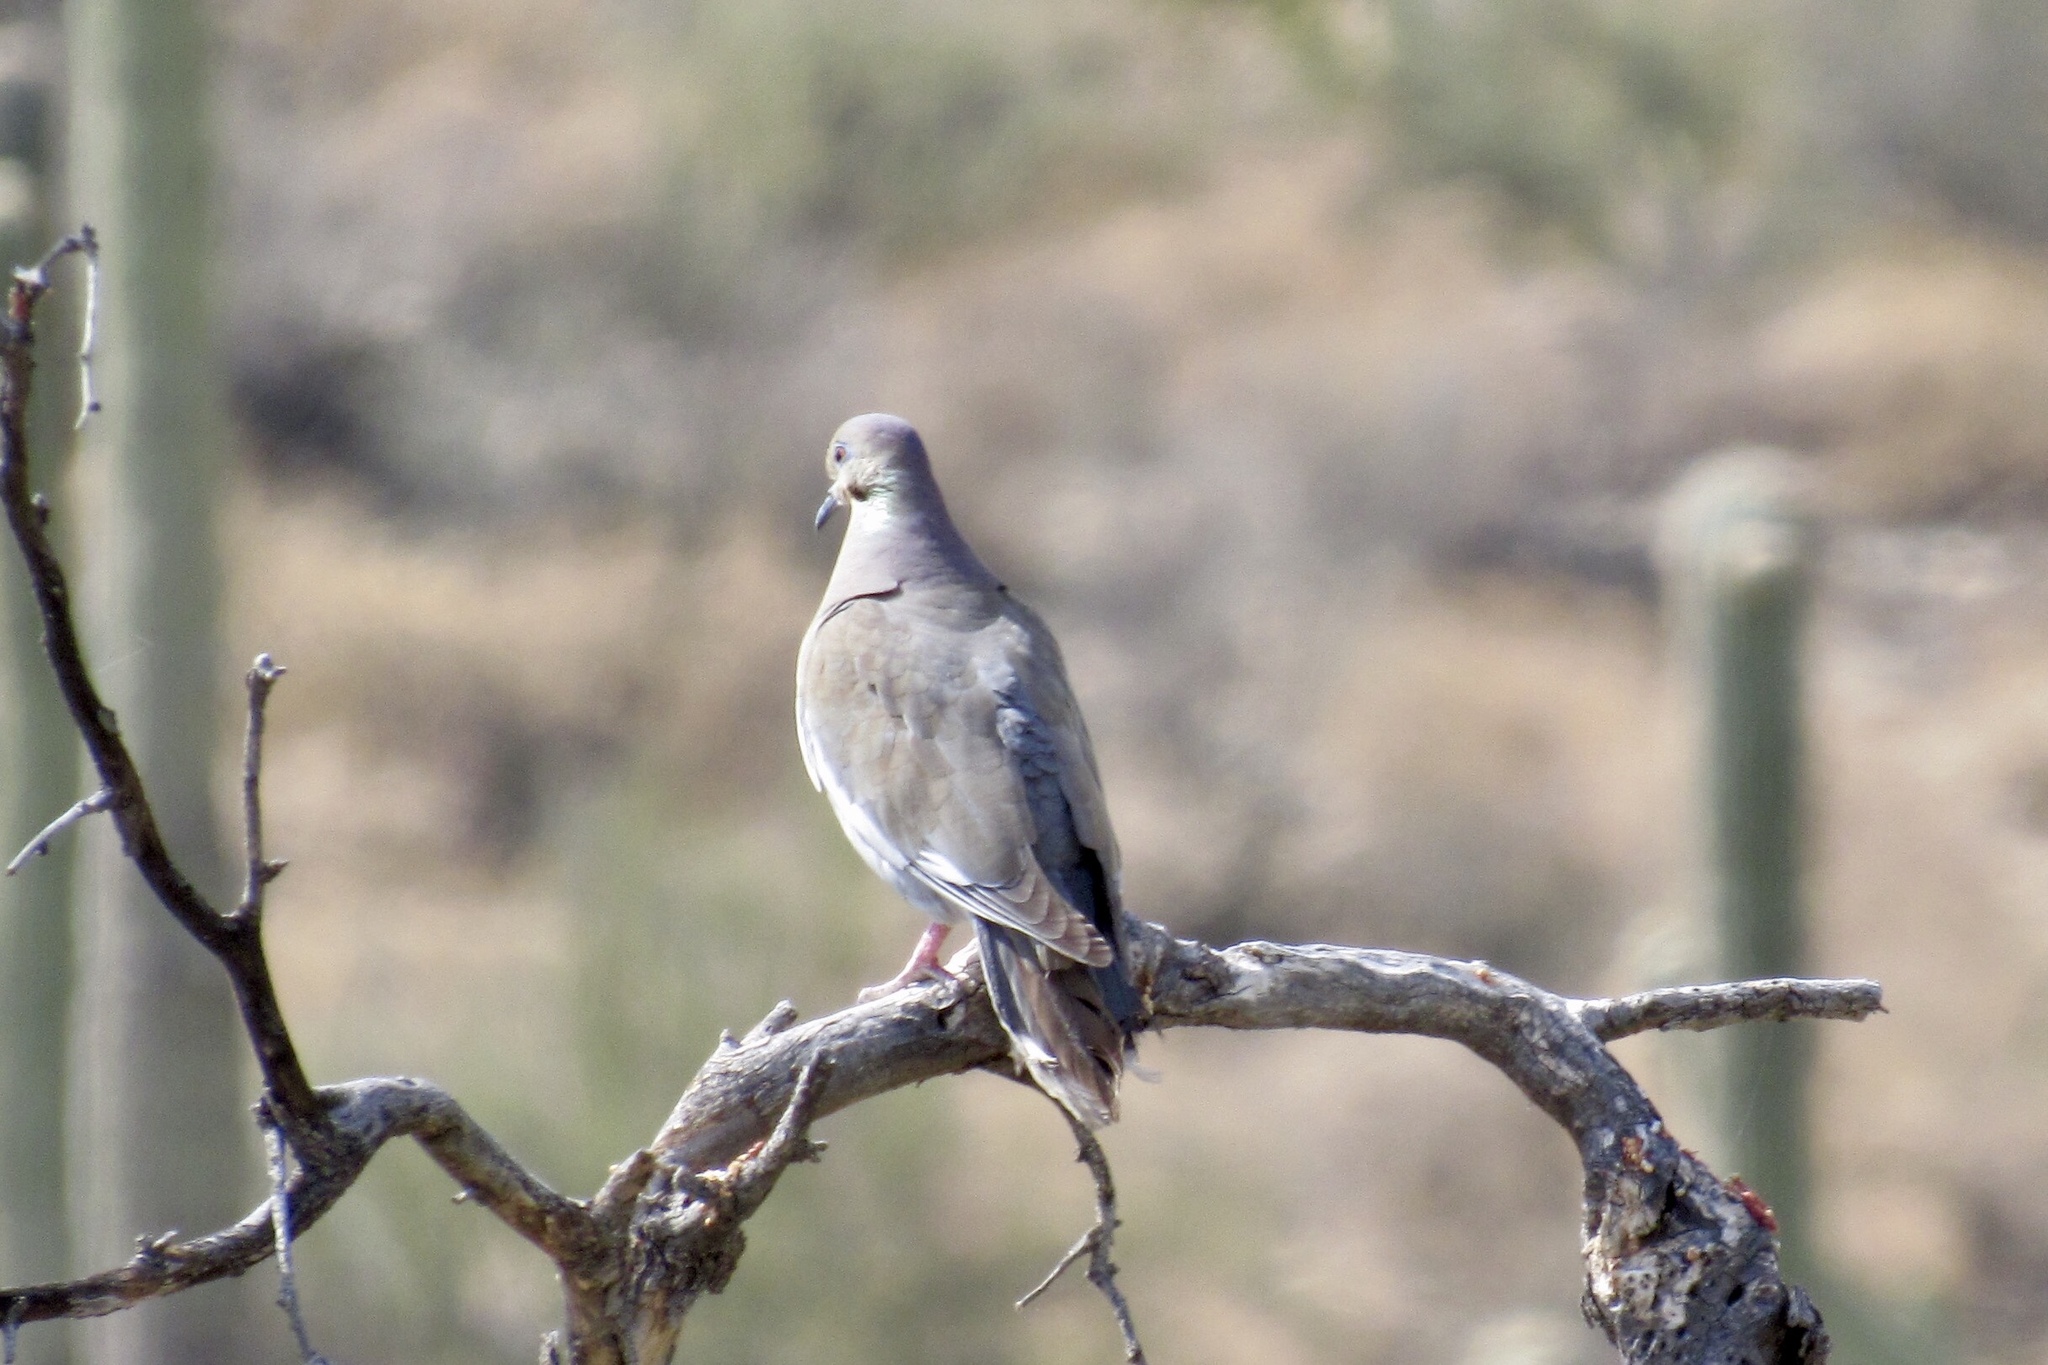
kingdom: Animalia
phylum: Chordata
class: Aves
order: Columbiformes
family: Columbidae
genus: Zenaida
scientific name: Zenaida asiatica
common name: White-winged dove
